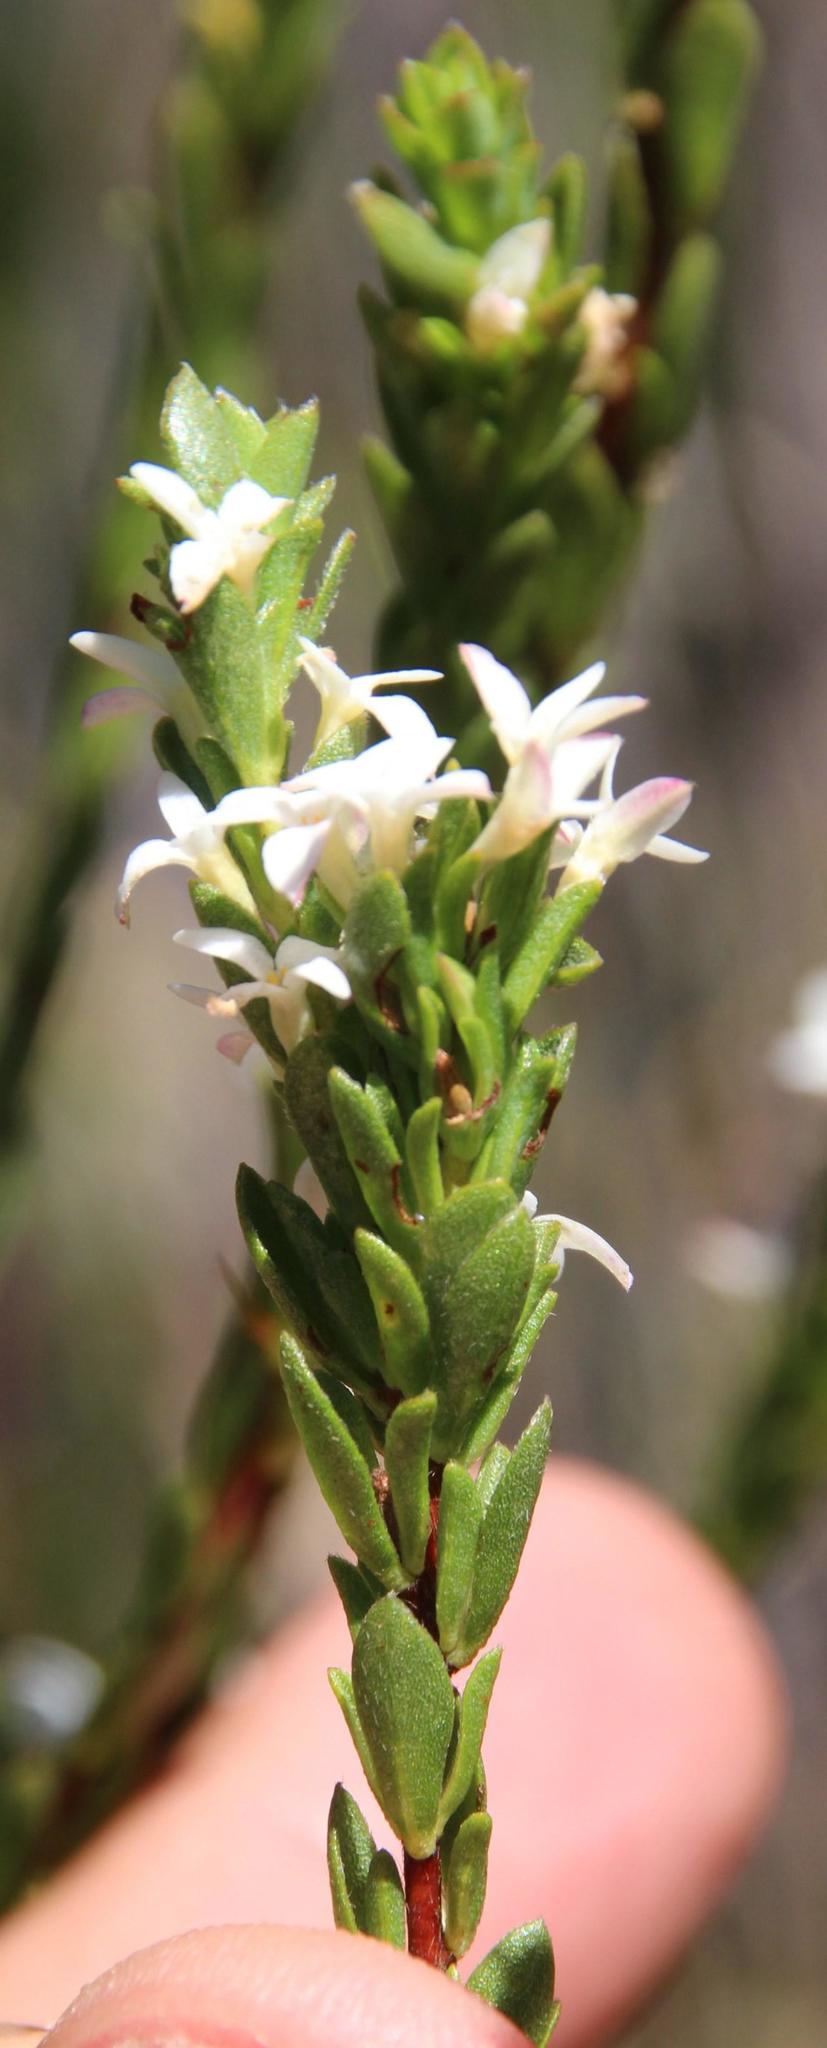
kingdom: Plantae
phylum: Tracheophyta
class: Magnoliopsida
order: Malvales
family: Thymelaeaceae
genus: Gnidia
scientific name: Gnidia spicata
